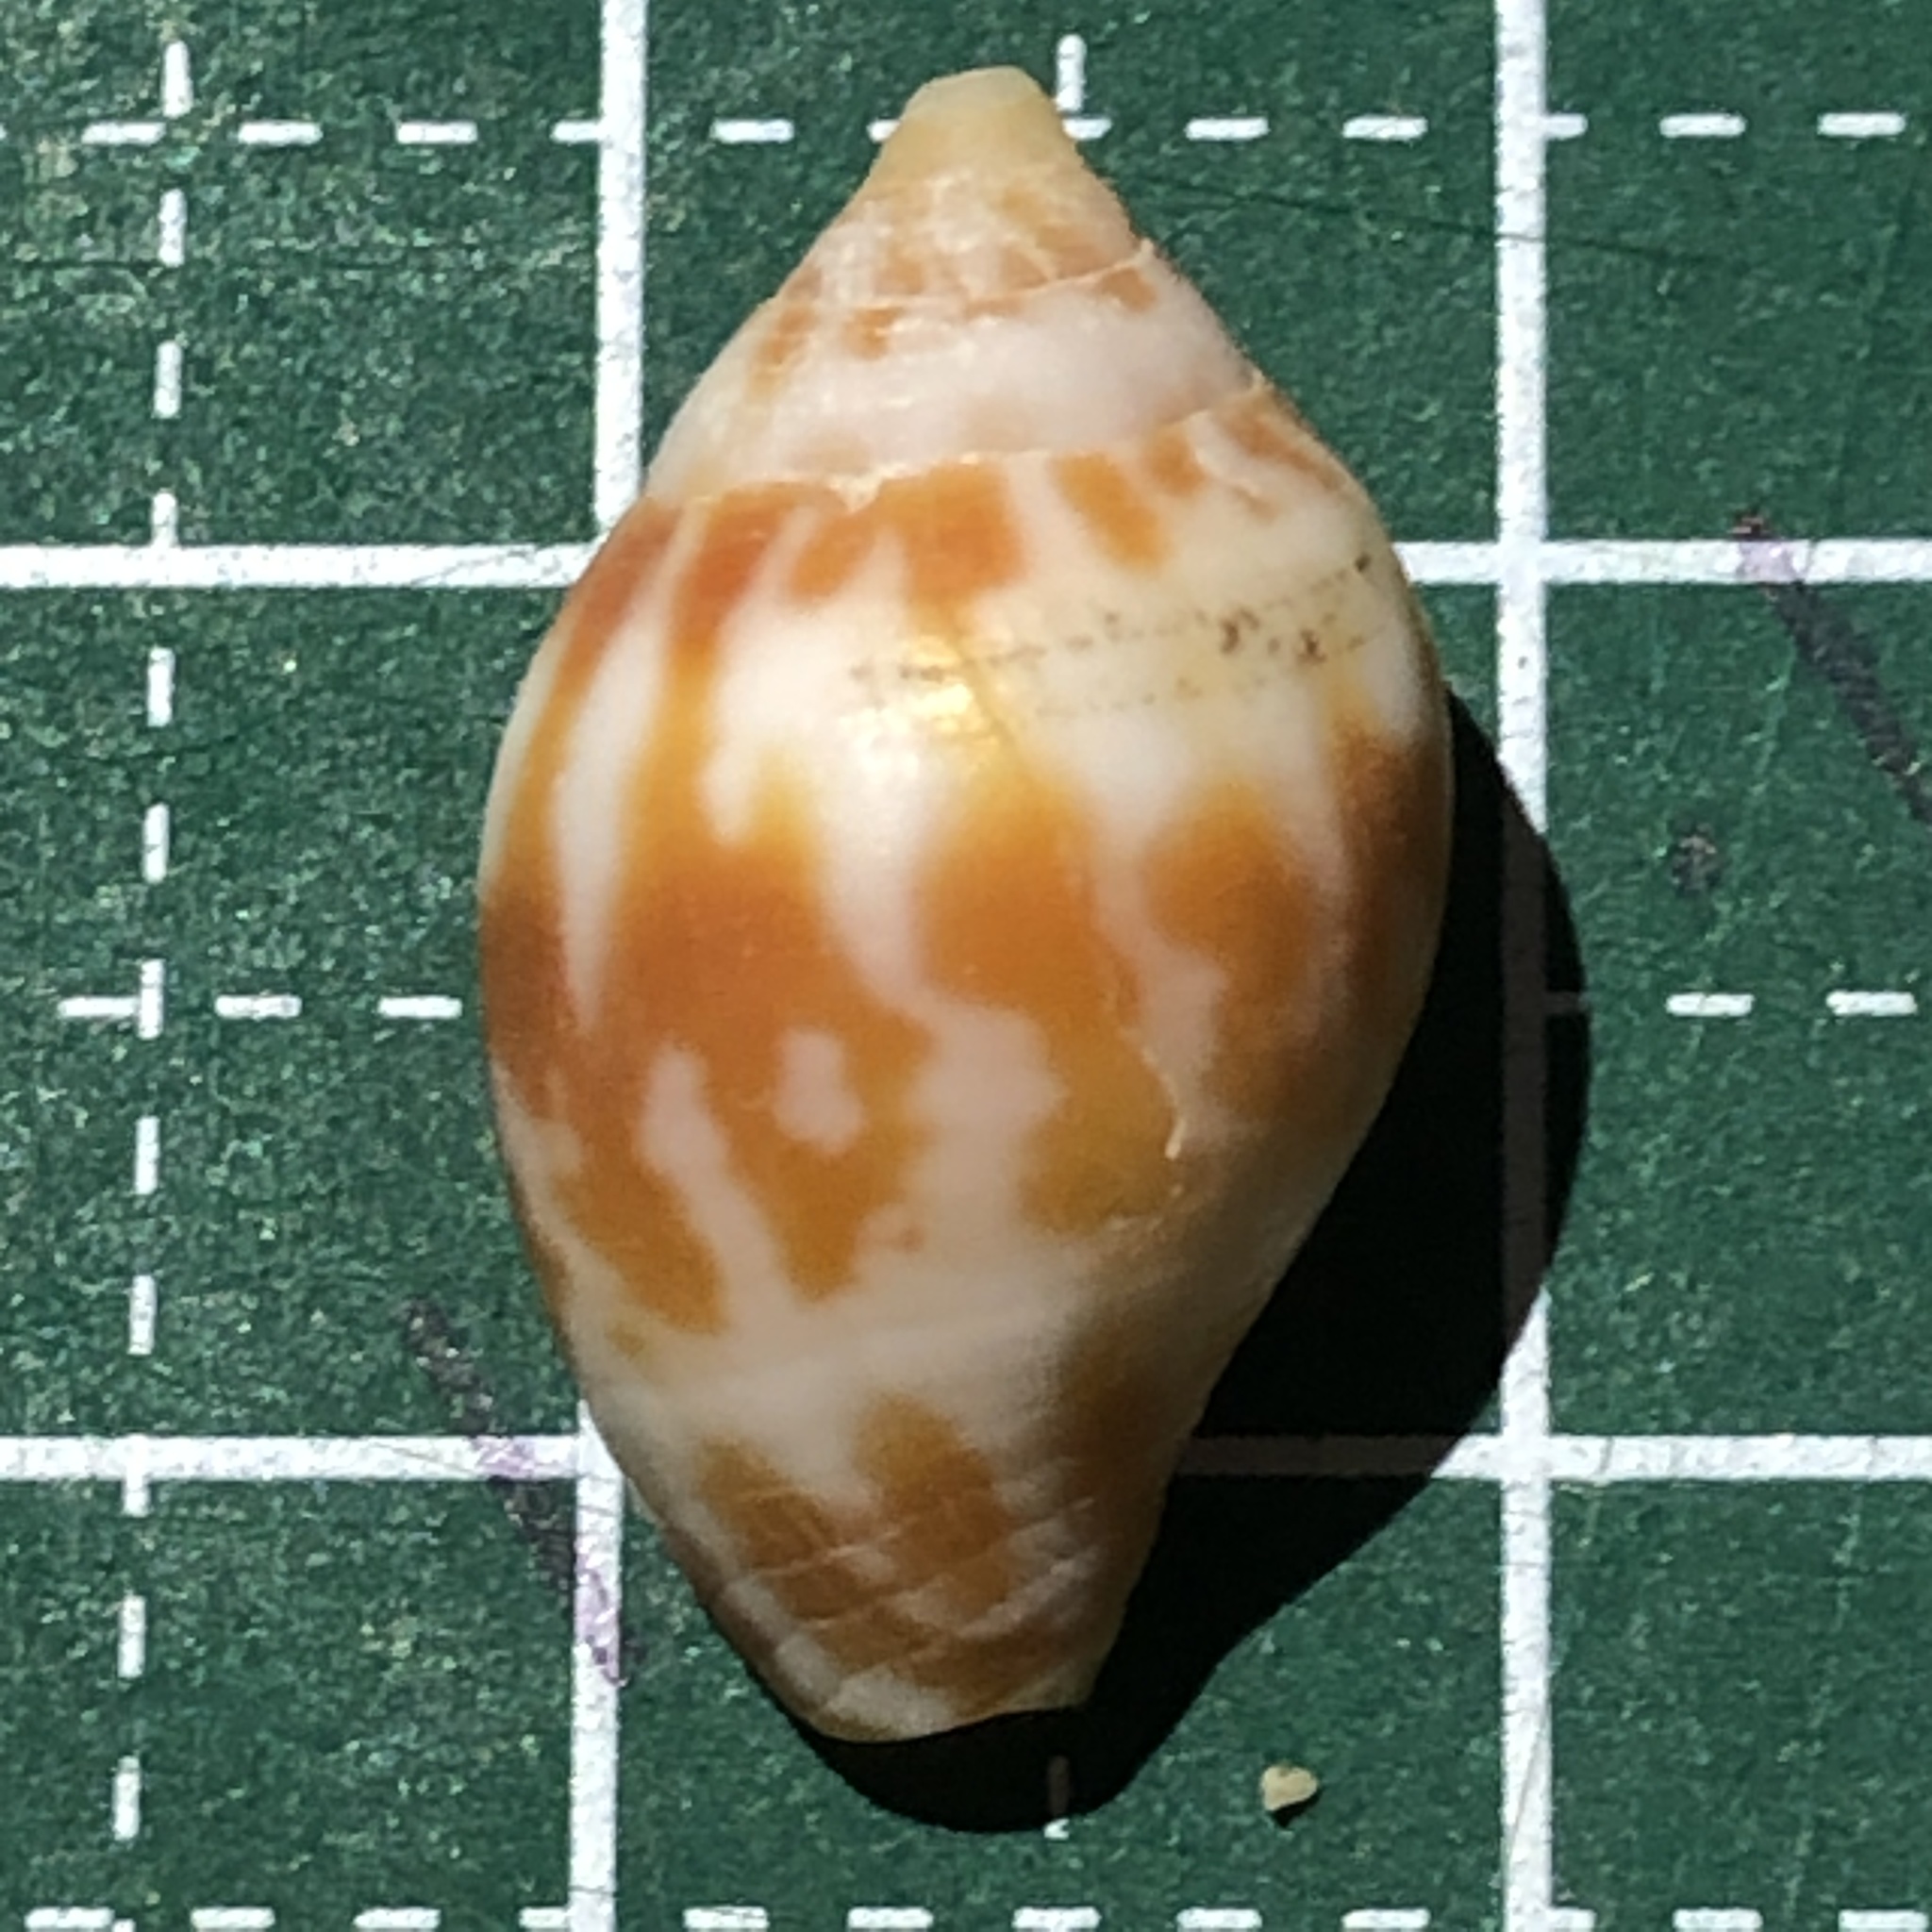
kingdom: Animalia
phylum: Mollusca
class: Gastropoda
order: Neogastropoda
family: Mitridae
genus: Strigatella
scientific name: Strigatella litterata
